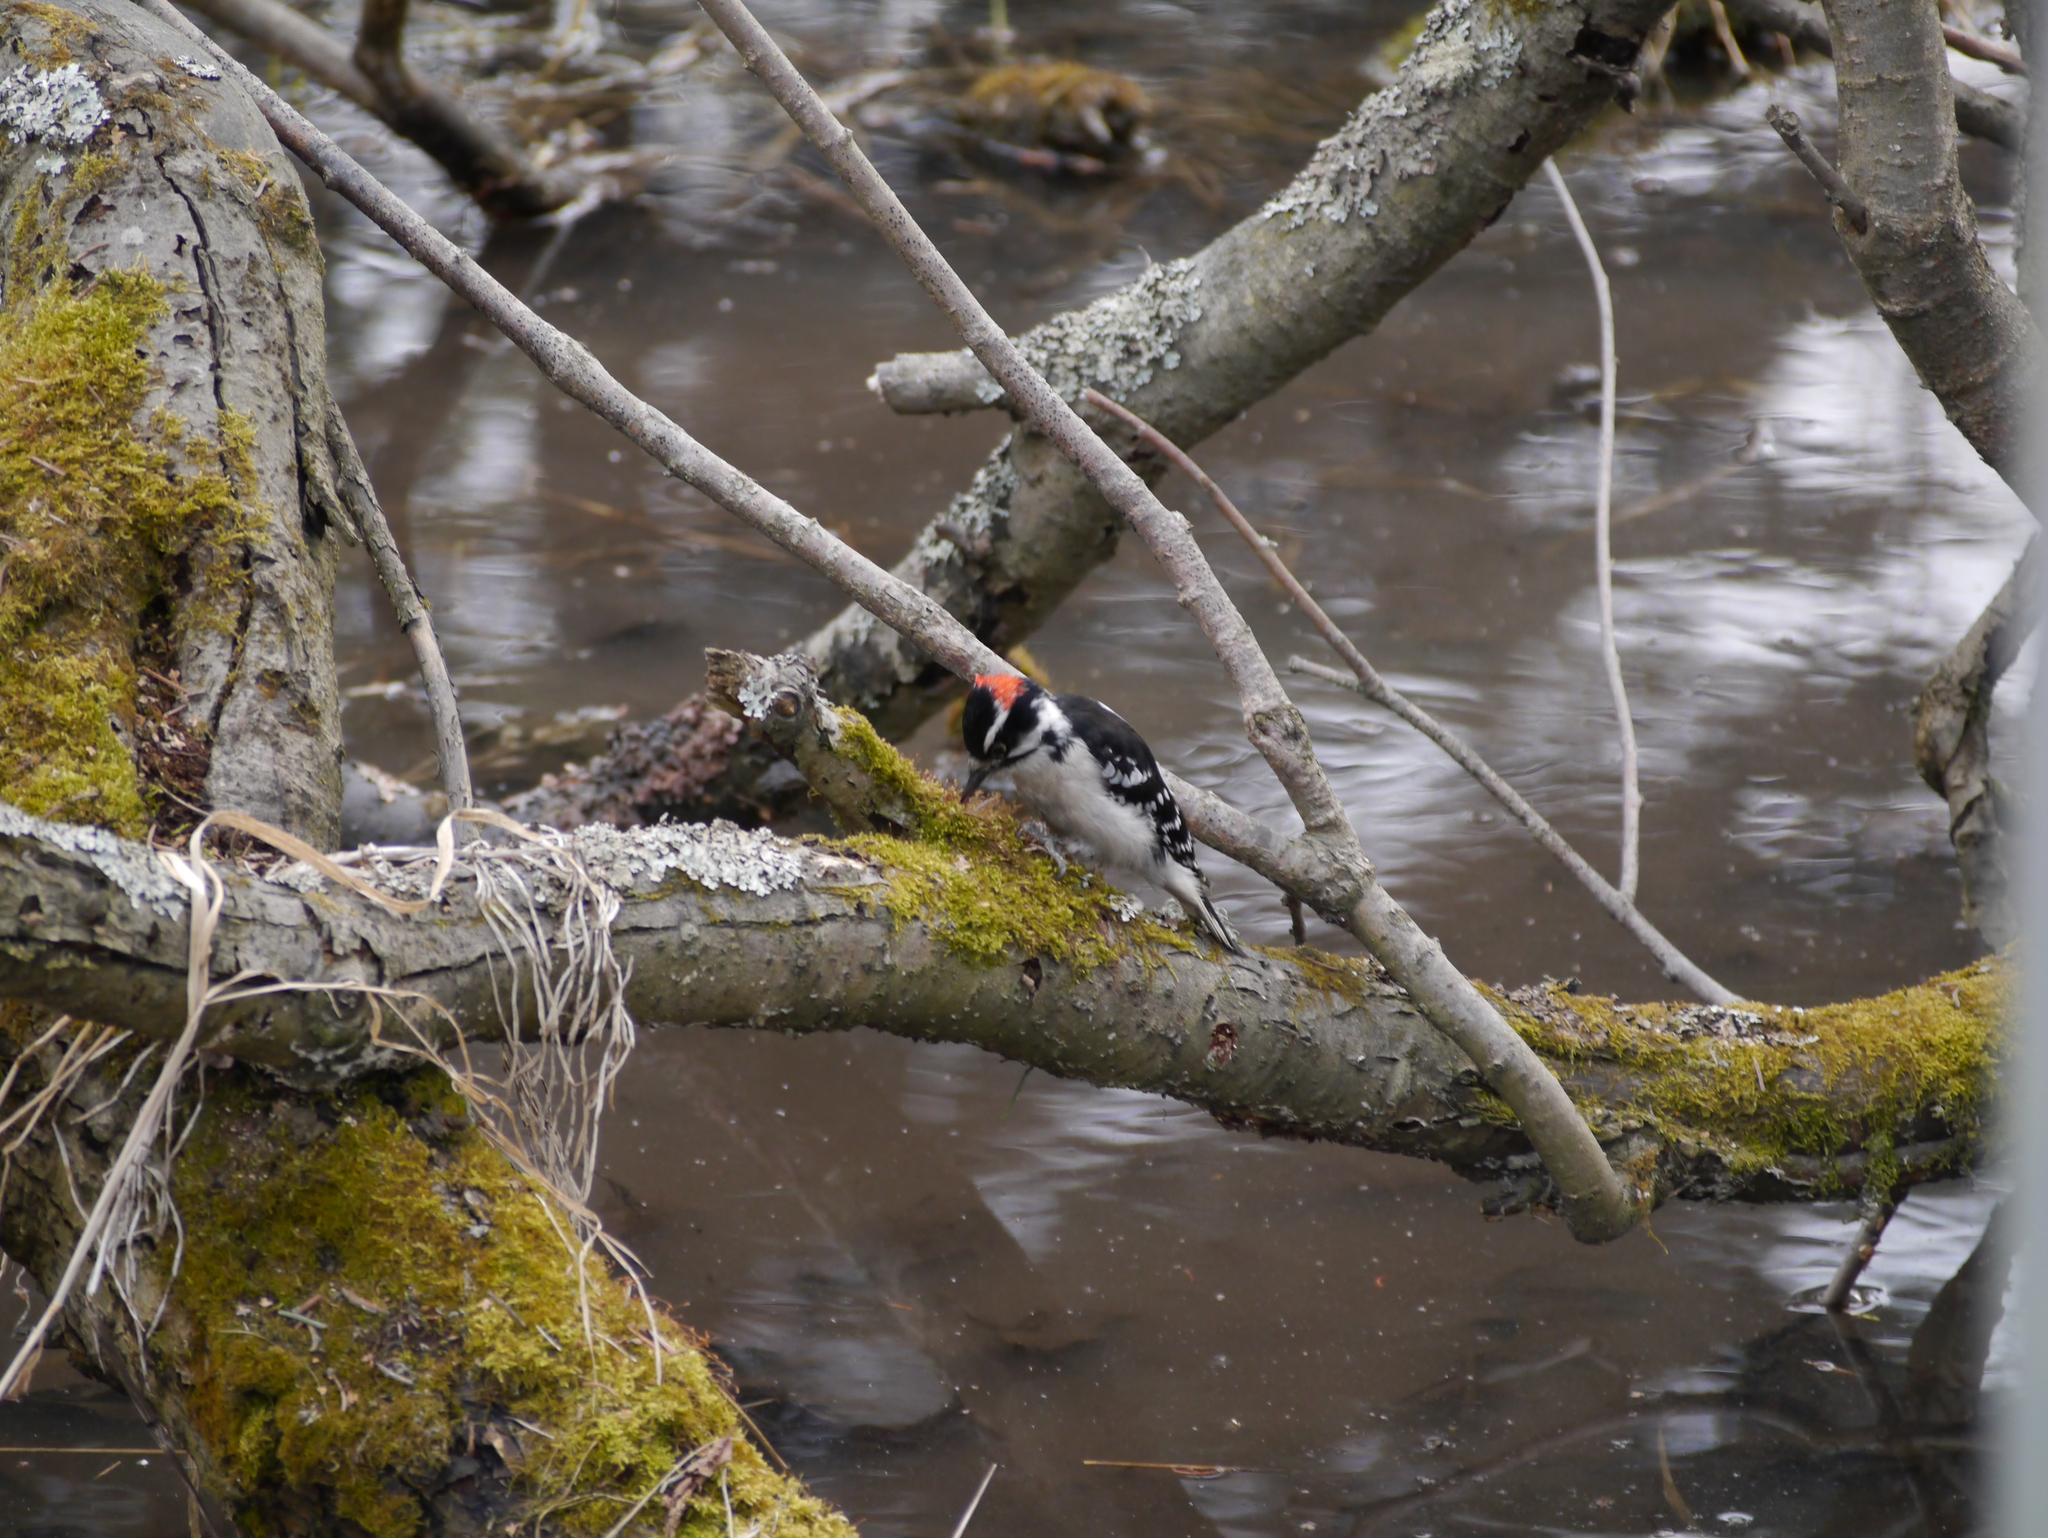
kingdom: Animalia
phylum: Chordata
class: Aves
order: Piciformes
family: Picidae
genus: Dryobates
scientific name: Dryobates pubescens
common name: Downy woodpecker
